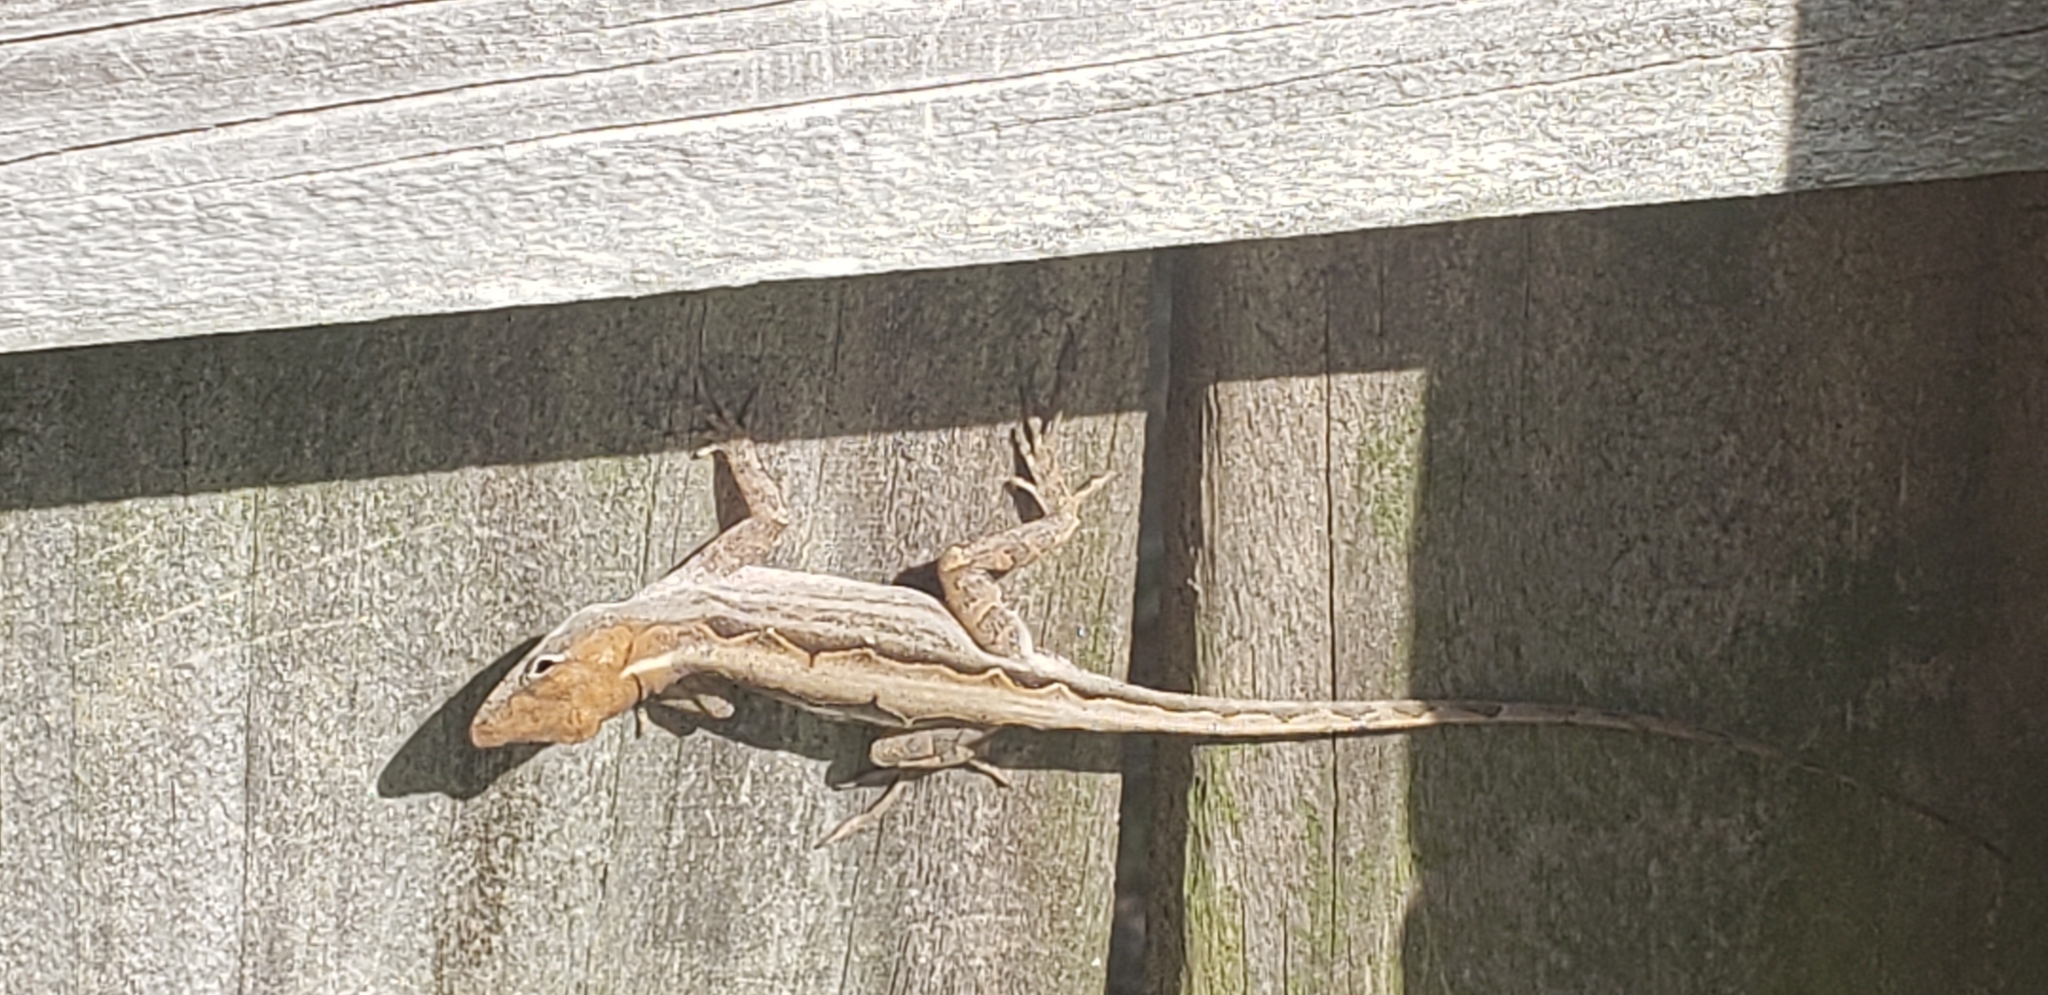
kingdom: Animalia
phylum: Chordata
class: Squamata
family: Dactyloidae
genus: Anolis
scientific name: Anolis sagrei
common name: Brown anole
